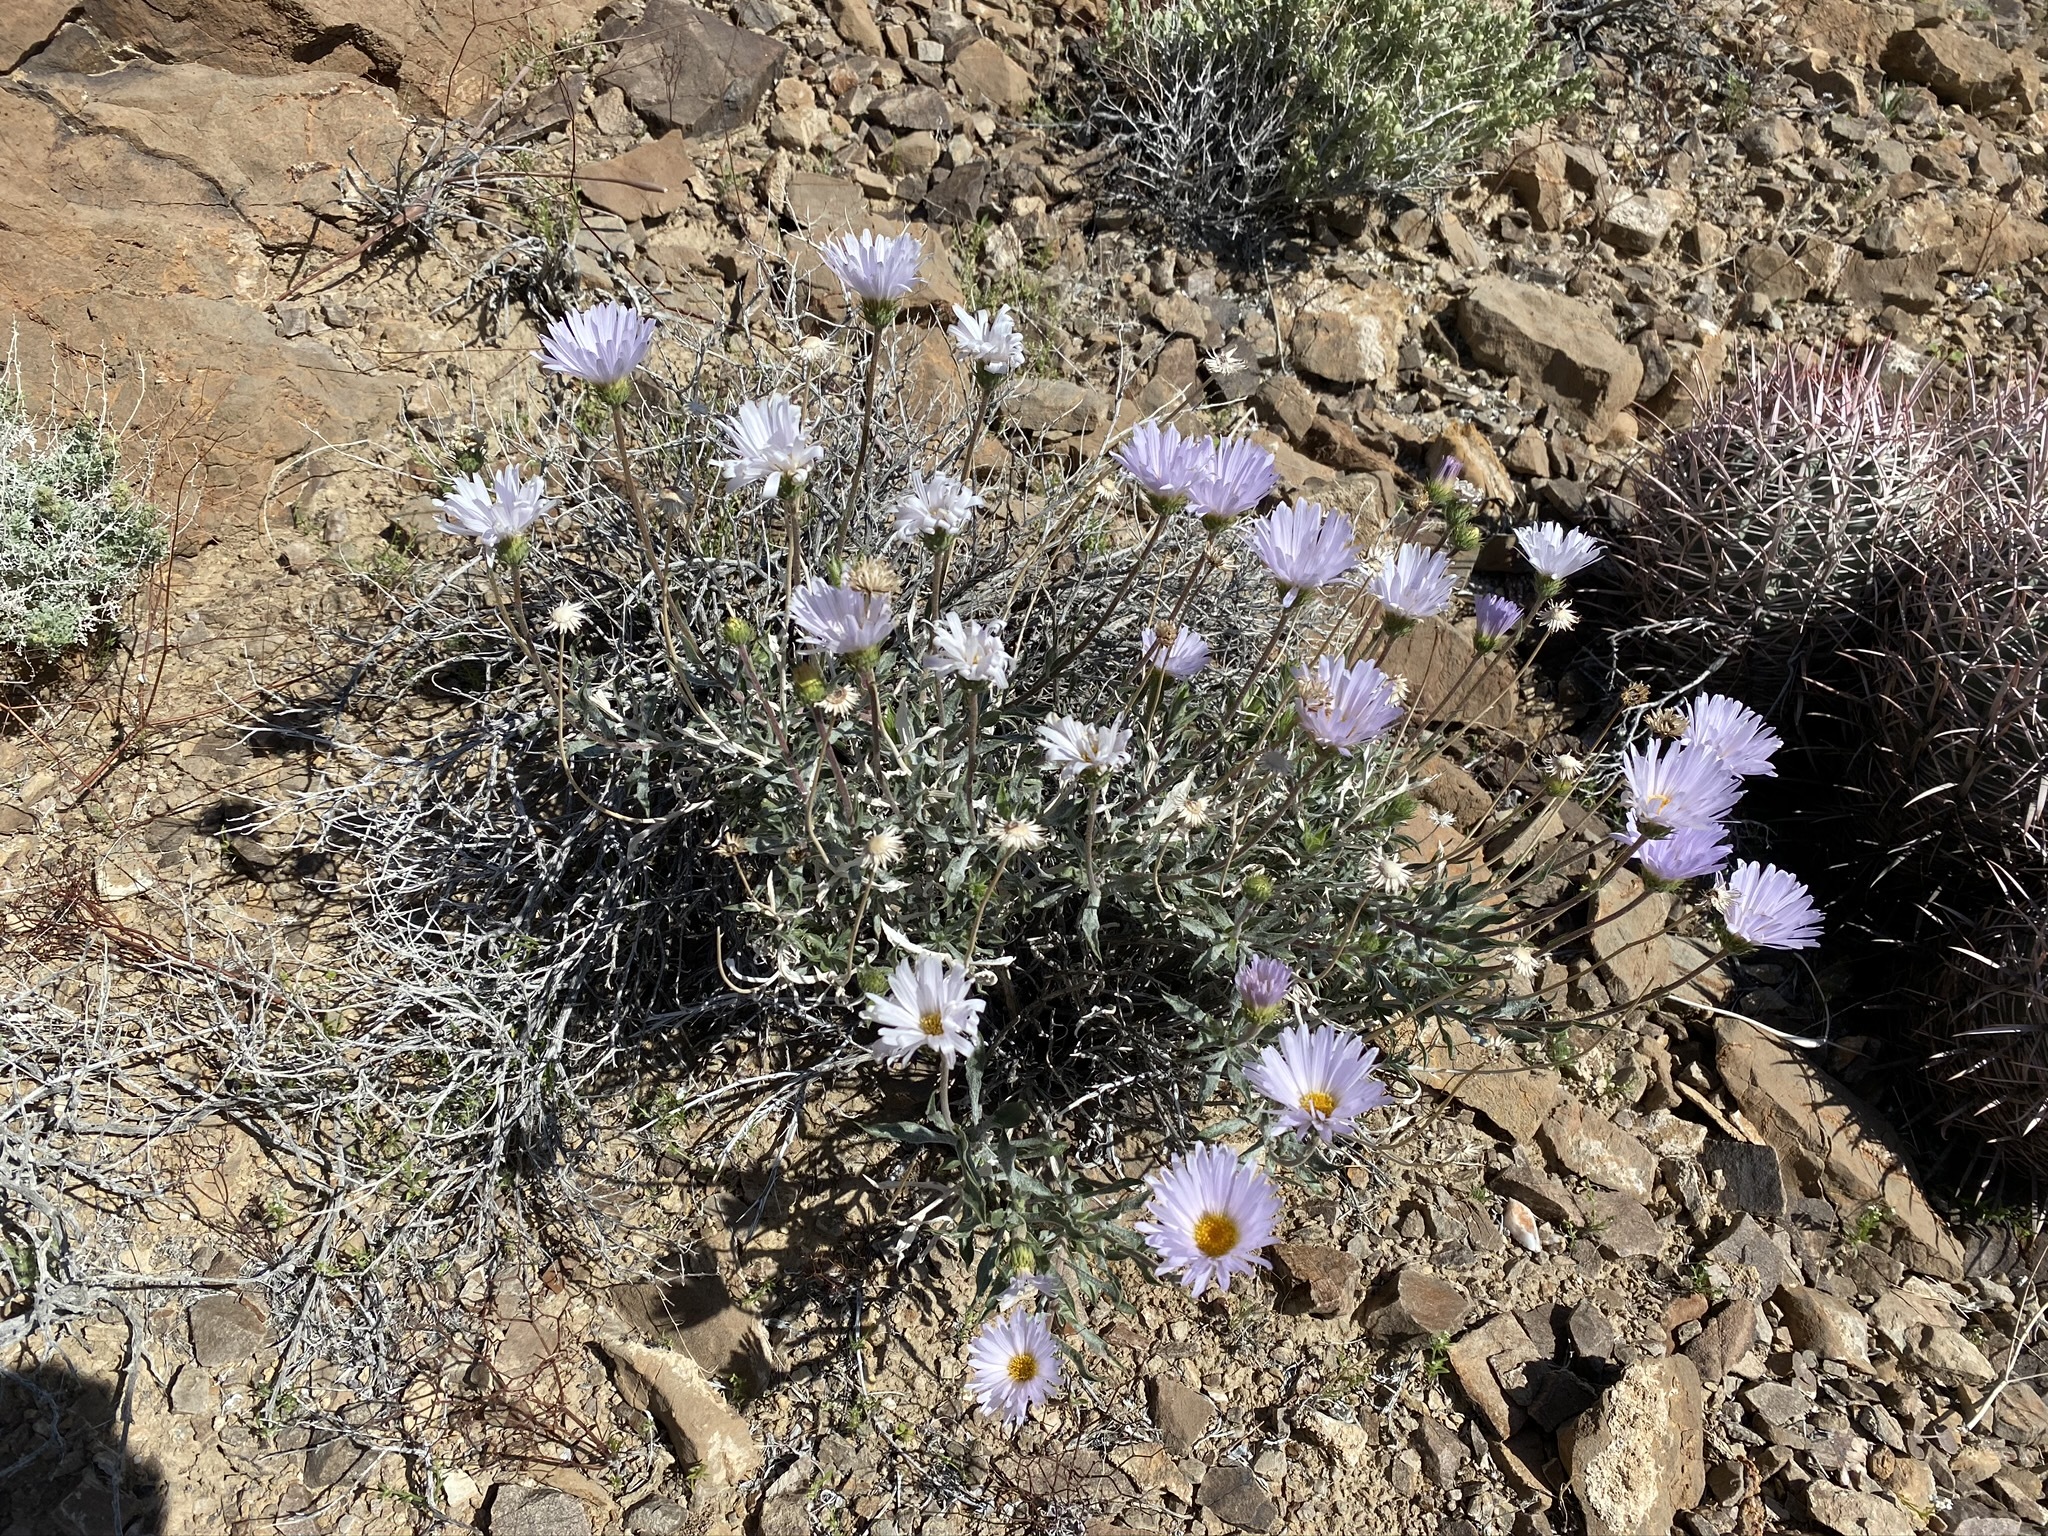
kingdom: Plantae
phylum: Tracheophyta
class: Magnoliopsida
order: Asterales
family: Asteraceae
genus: Xylorhiza
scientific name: Xylorhiza tortifolia
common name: Hurt-leaf woody-aster
